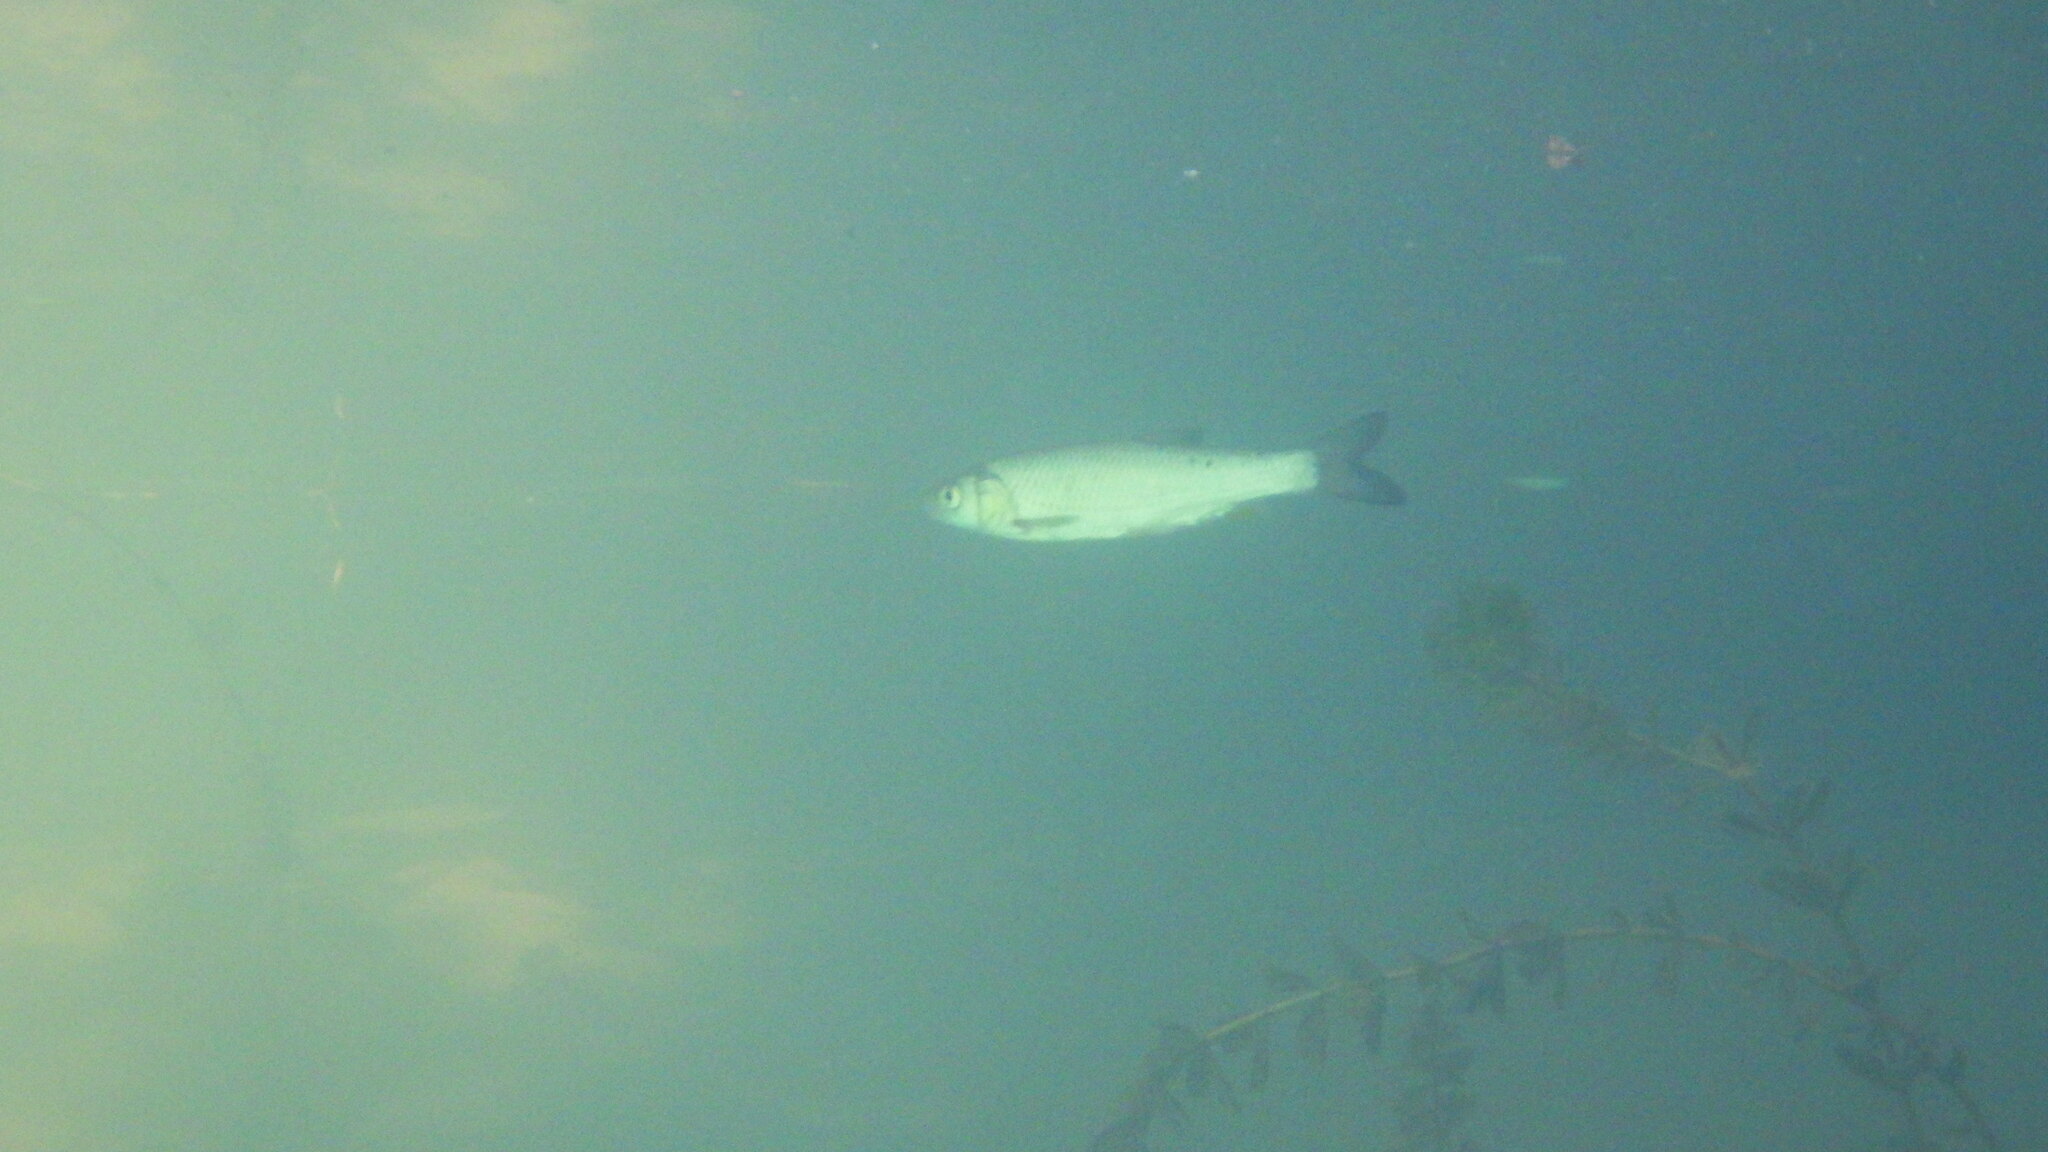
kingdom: Animalia
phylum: Chordata
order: Cypriniformes
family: Cyprinidae
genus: Squalius
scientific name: Squalius cephalus
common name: Chub
